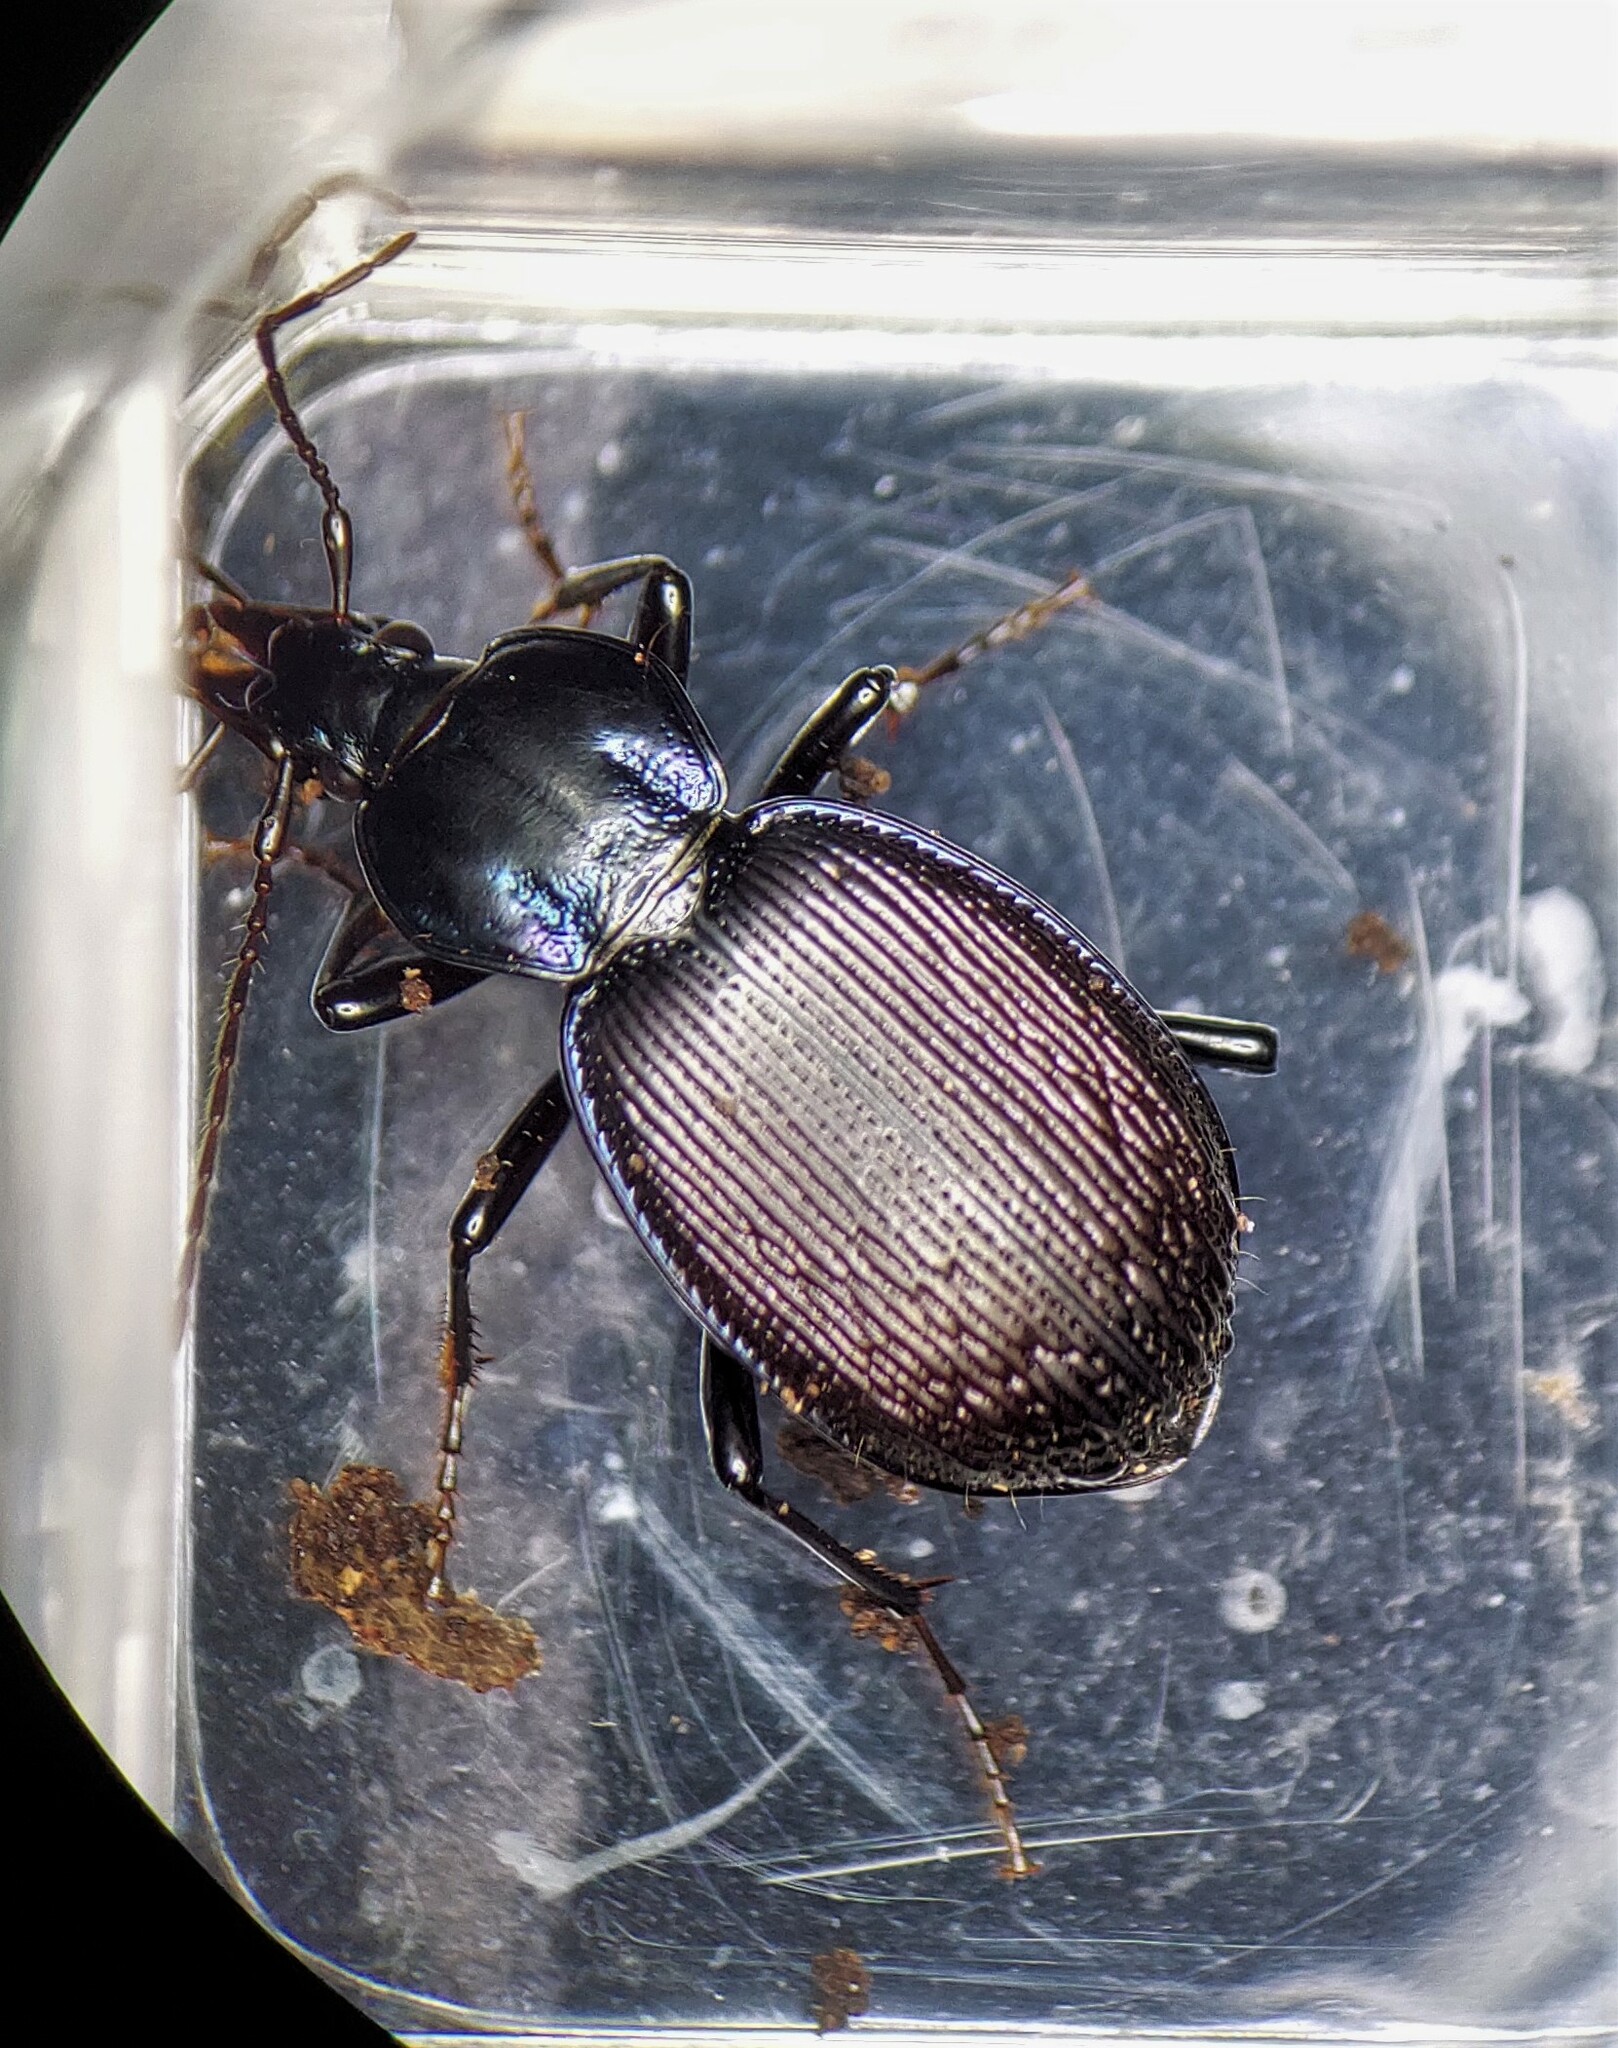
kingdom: Animalia
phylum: Arthropoda
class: Insecta
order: Coleoptera
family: Carabidae
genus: Sphaeroderus
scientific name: Sphaeroderus stenostomus
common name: Small snail-eating ground beetle
